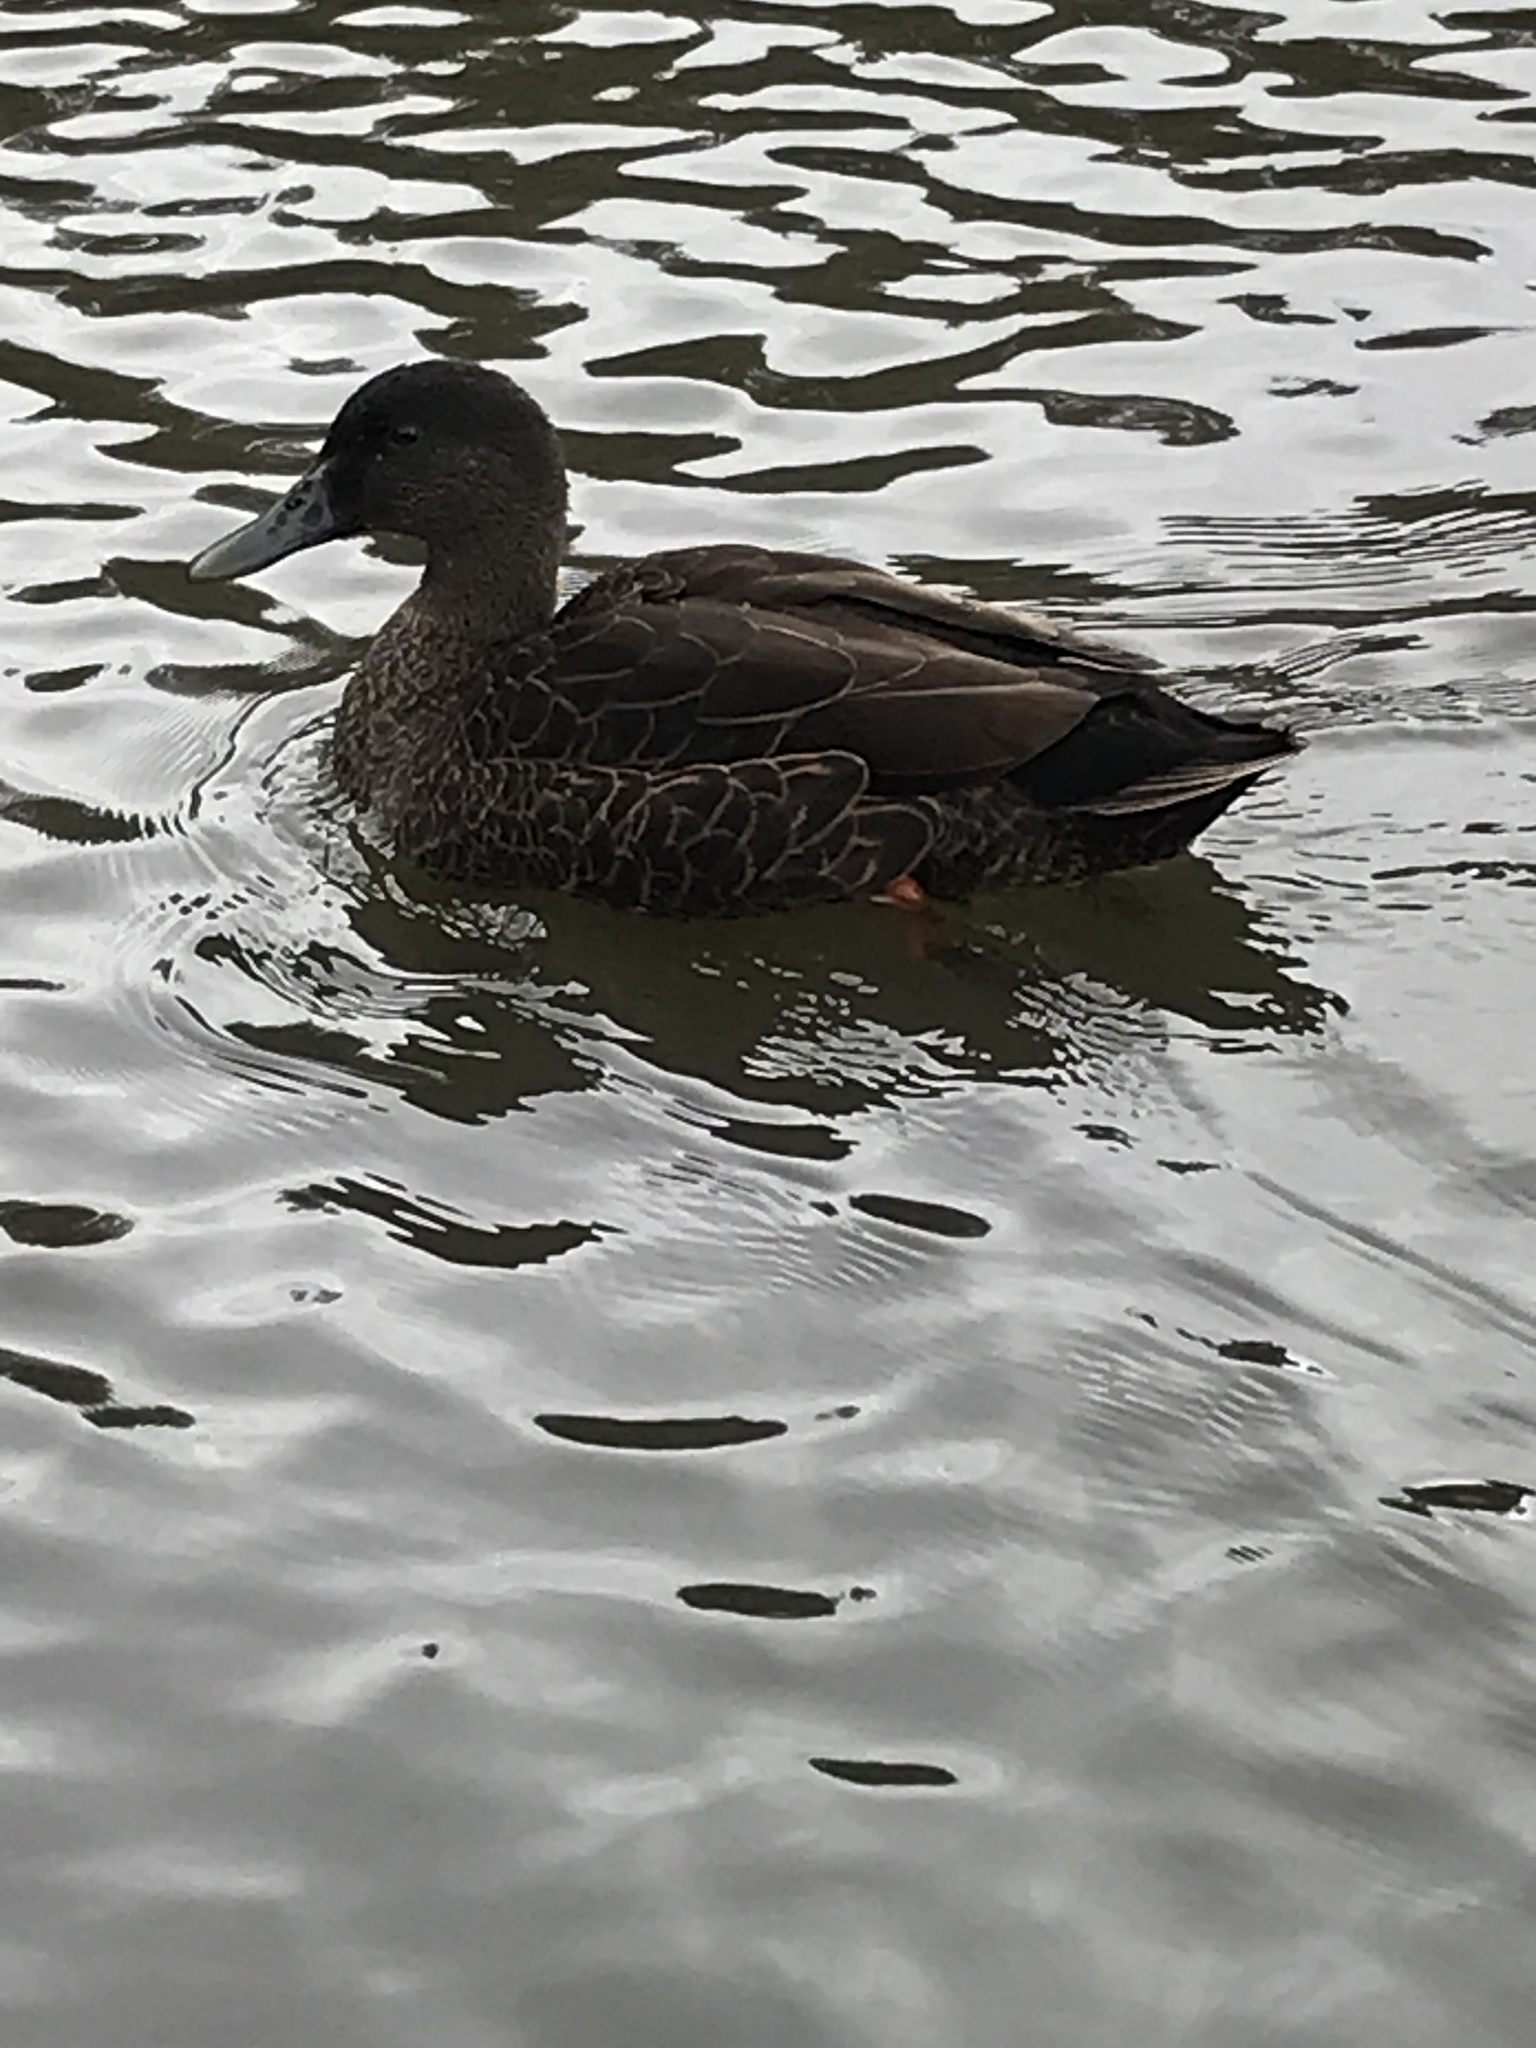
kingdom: Animalia
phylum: Chordata
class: Aves
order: Anseriformes
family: Anatidae
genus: Anas
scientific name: Anas
